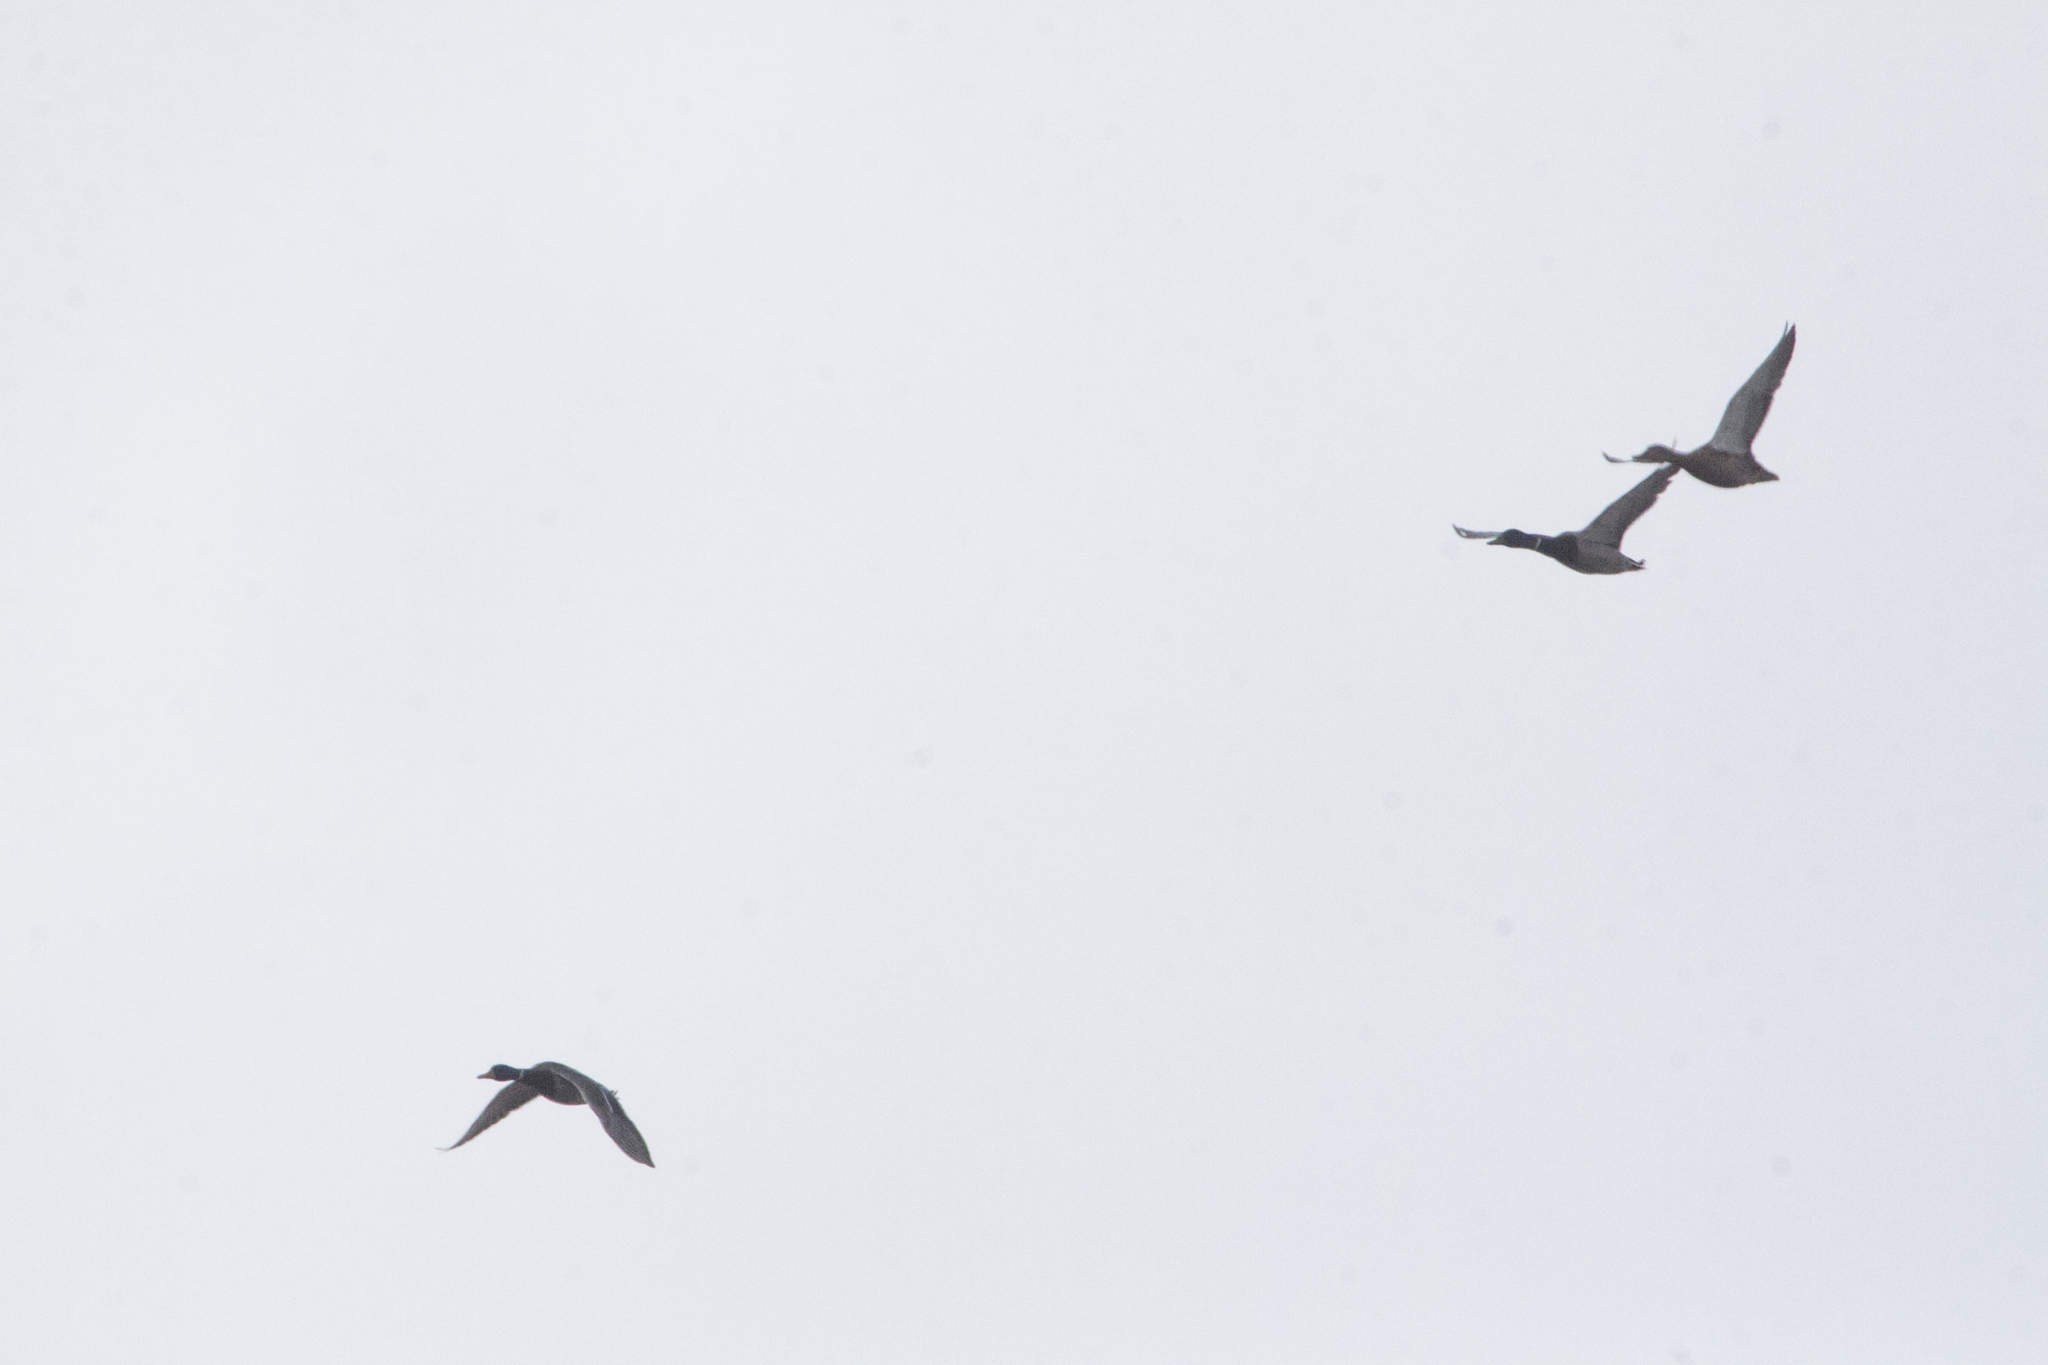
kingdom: Animalia
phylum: Chordata
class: Aves
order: Anseriformes
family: Anatidae
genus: Anas
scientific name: Anas platyrhynchos
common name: Mallard
